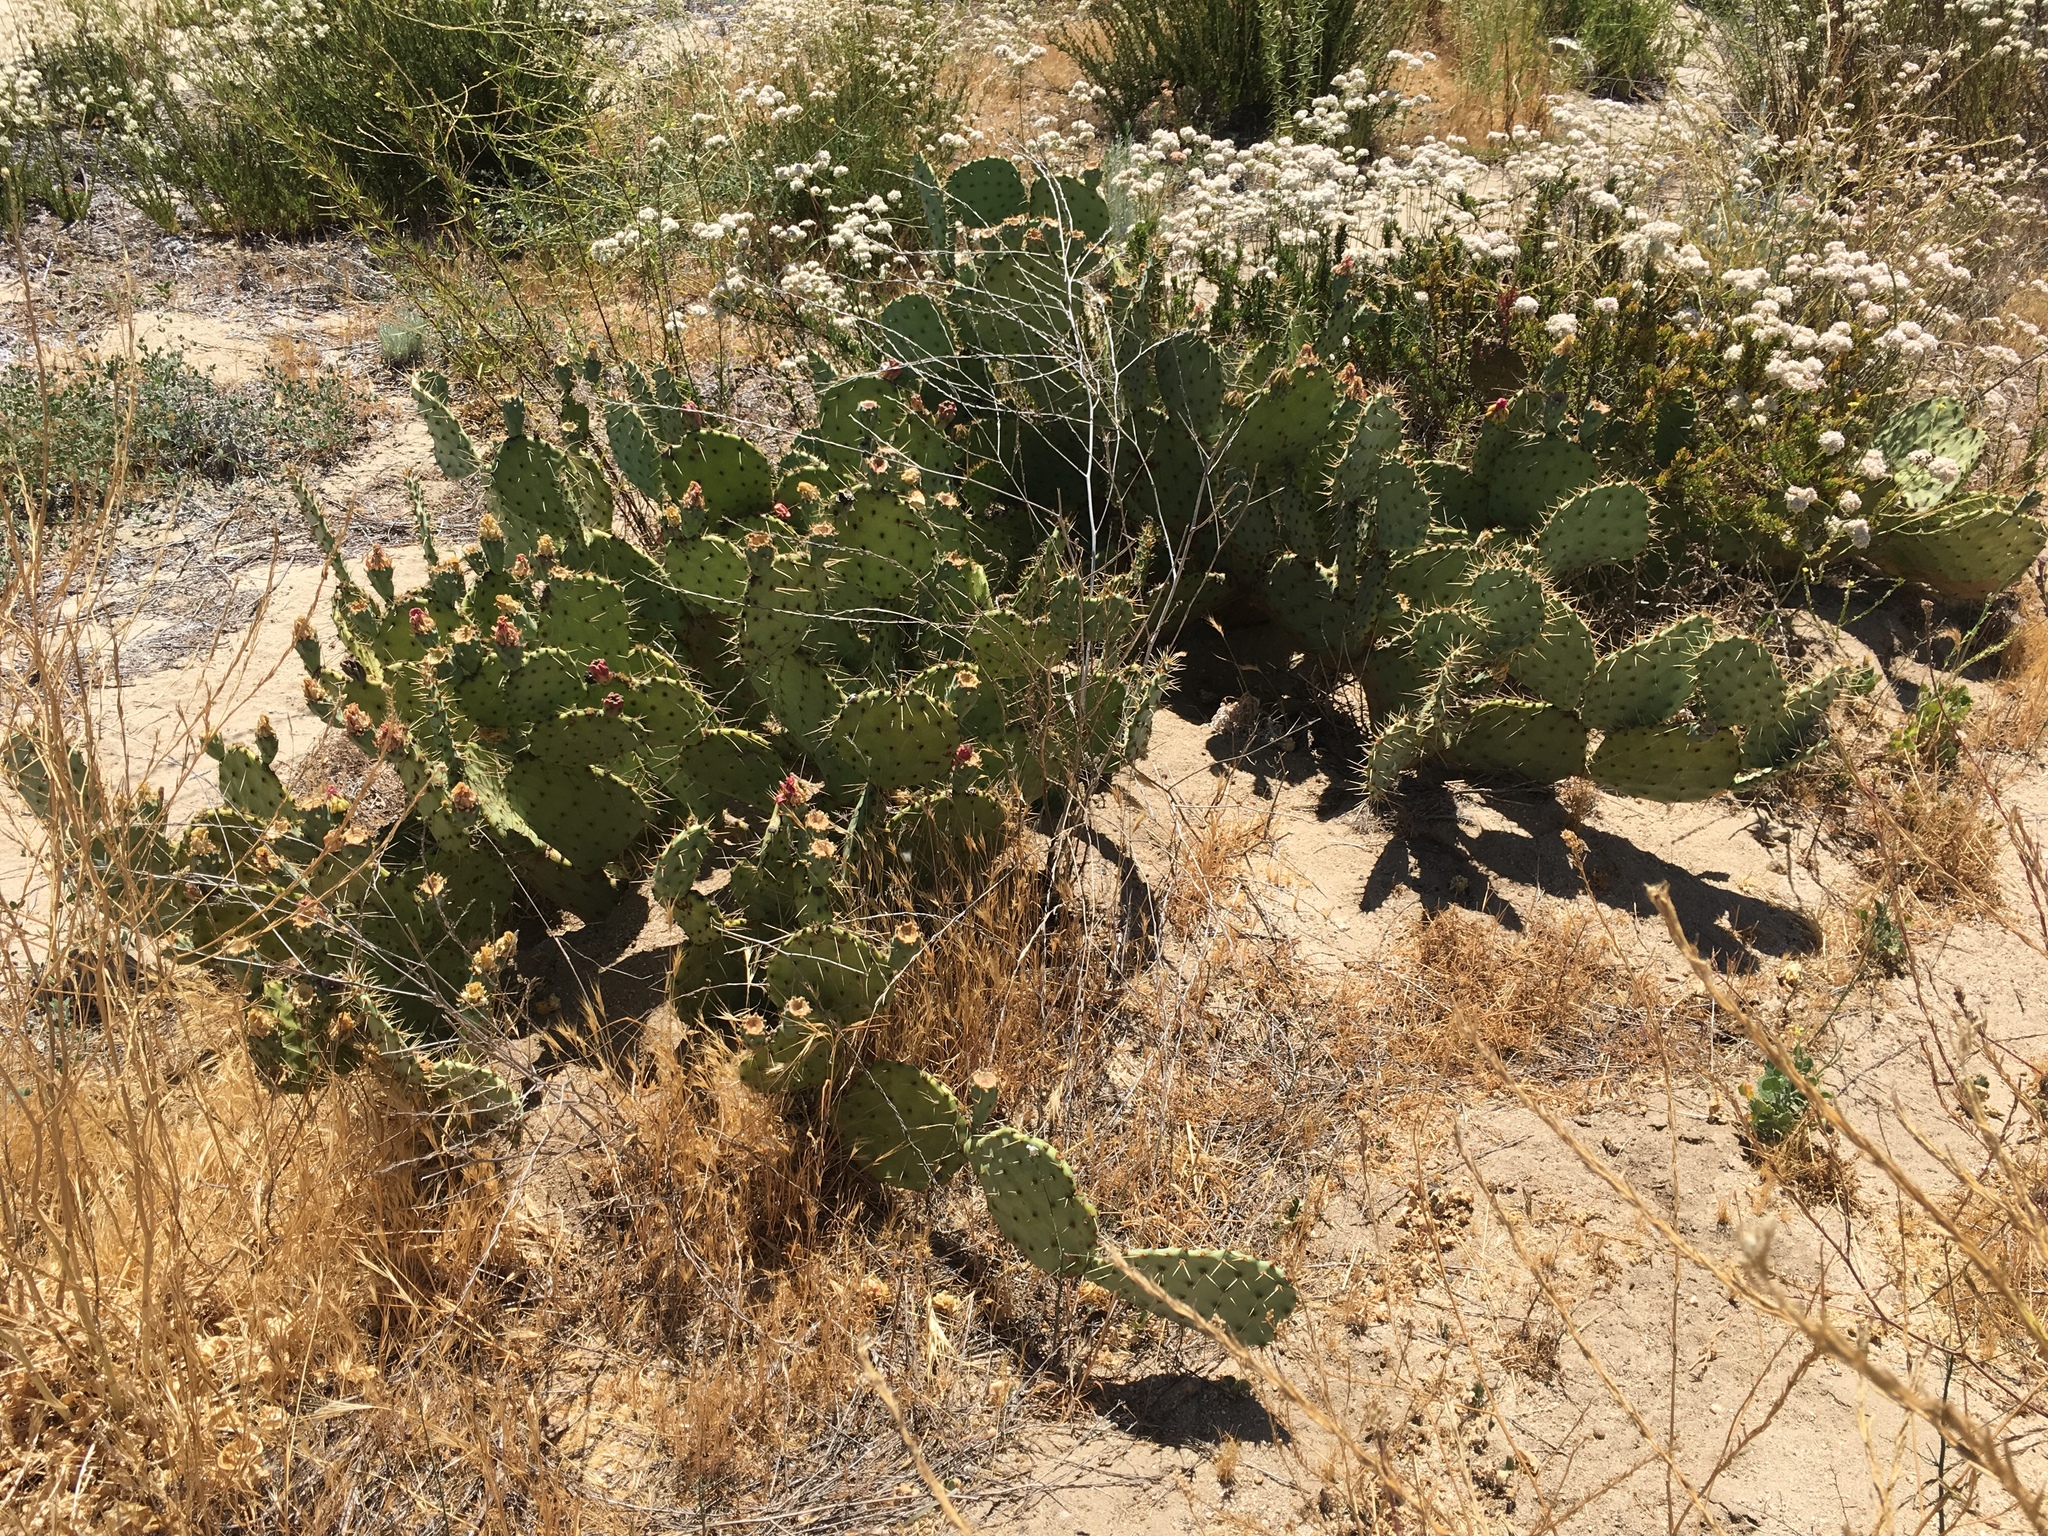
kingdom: Plantae
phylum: Tracheophyta
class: Magnoliopsida
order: Caryophyllales
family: Cactaceae
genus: Opuntia
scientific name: Opuntia littoralis
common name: Coastal prickly-pear
